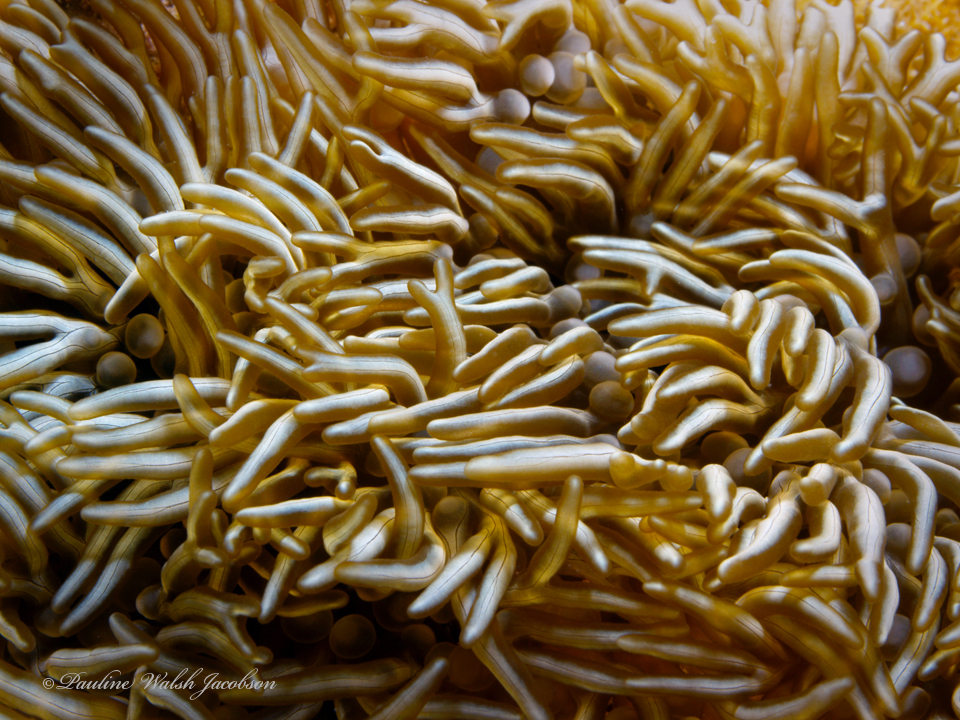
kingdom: Animalia
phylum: Cnidaria
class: Anthozoa
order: Actiniaria
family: Aliciidae
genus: Lebrunia
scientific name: Lebrunia neglecta
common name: Branching anemone
